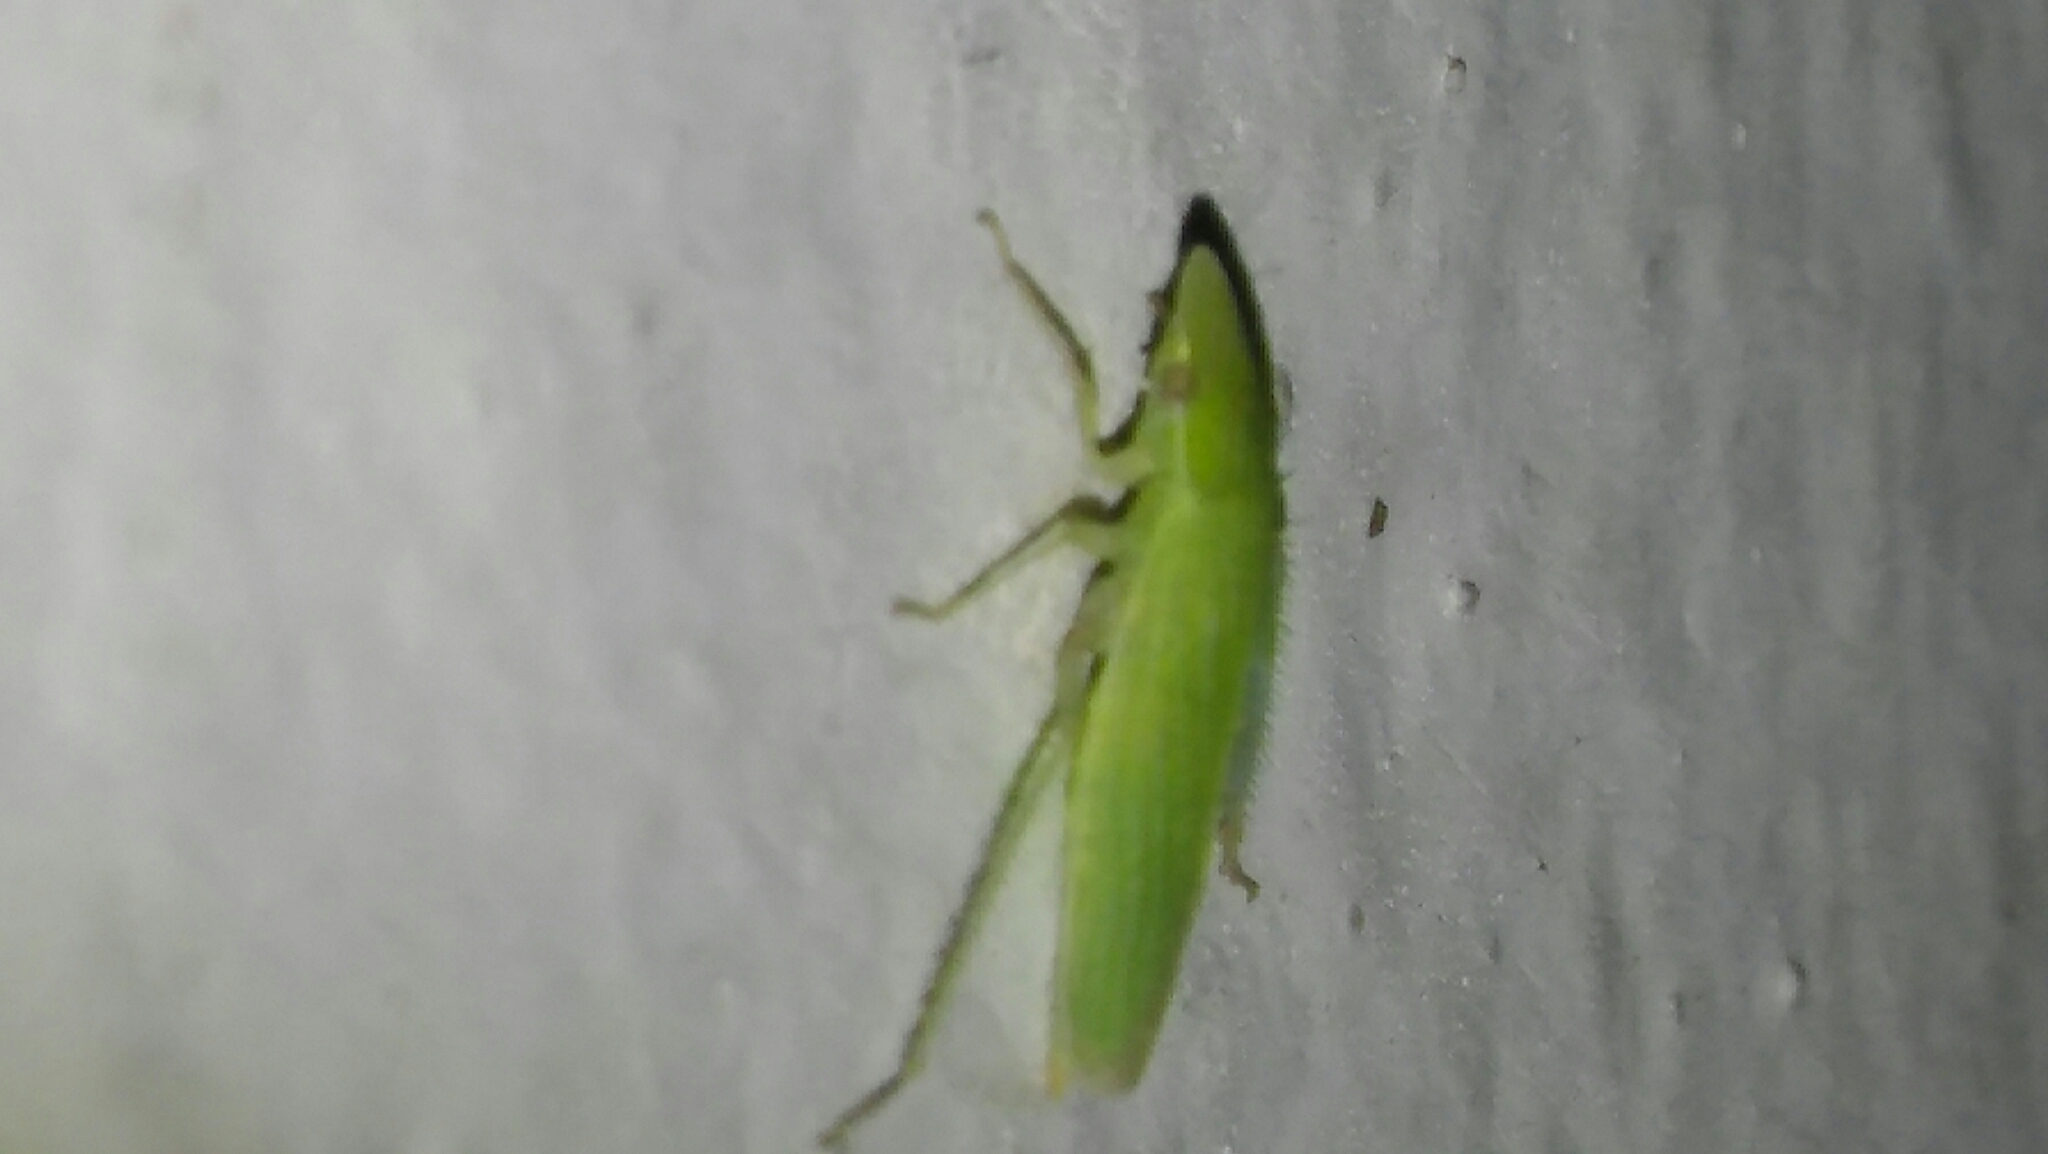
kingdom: Animalia
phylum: Arthropoda
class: Insecta
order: Hemiptera
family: Cicadellidae
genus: Spangbergiella
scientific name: Spangbergiella vulnerata
